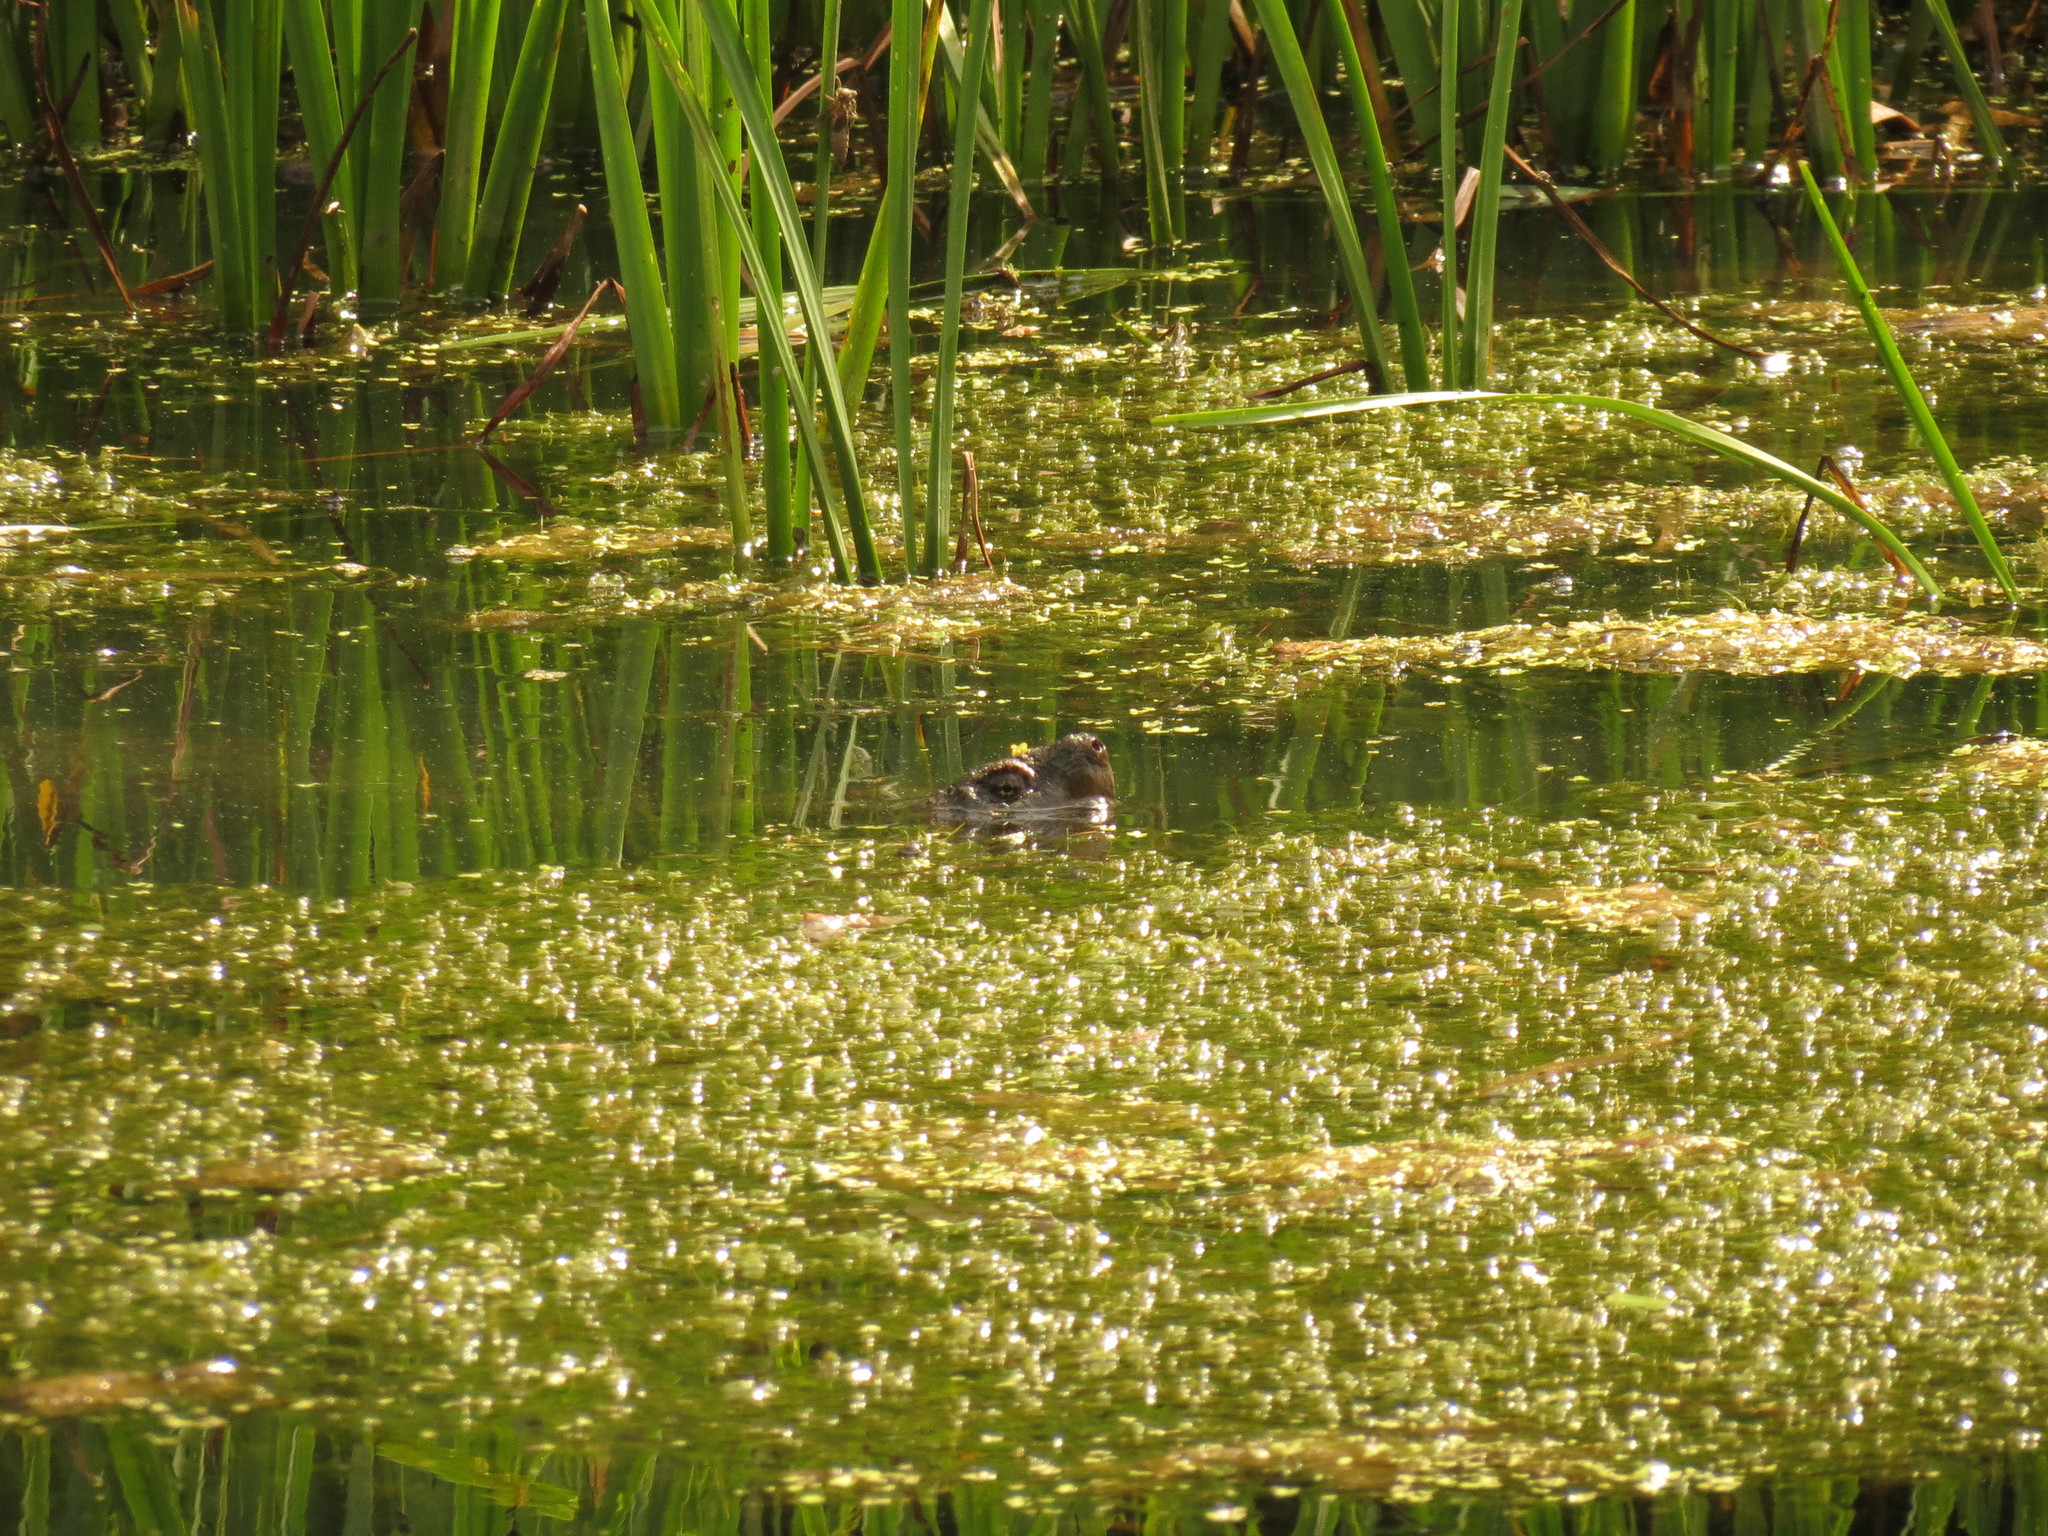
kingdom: Animalia
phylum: Chordata
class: Testudines
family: Chelydridae
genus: Chelydra
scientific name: Chelydra serpentina
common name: Common snapping turtle
